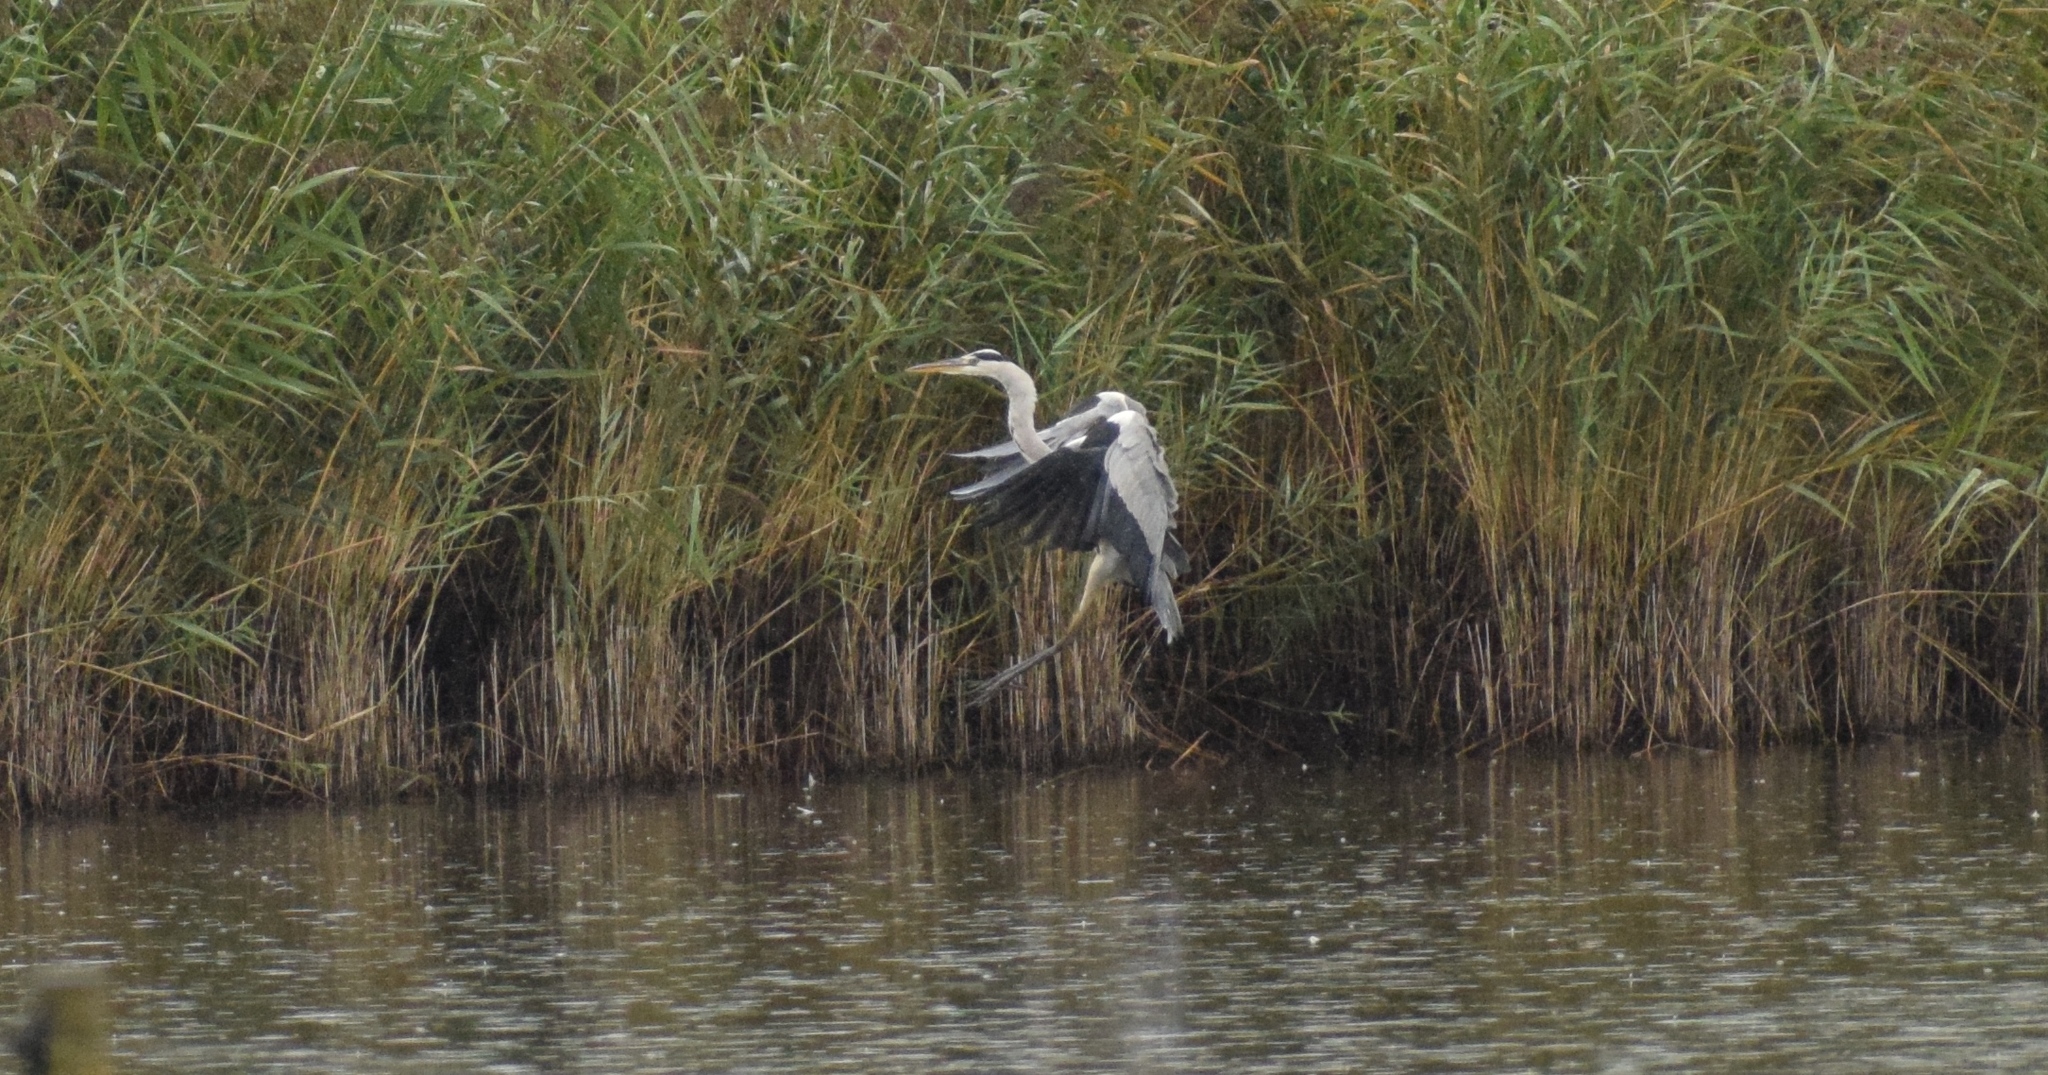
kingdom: Animalia
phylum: Chordata
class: Aves
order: Pelecaniformes
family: Ardeidae
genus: Ardea
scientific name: Ardea cinerea
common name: Grey heron
